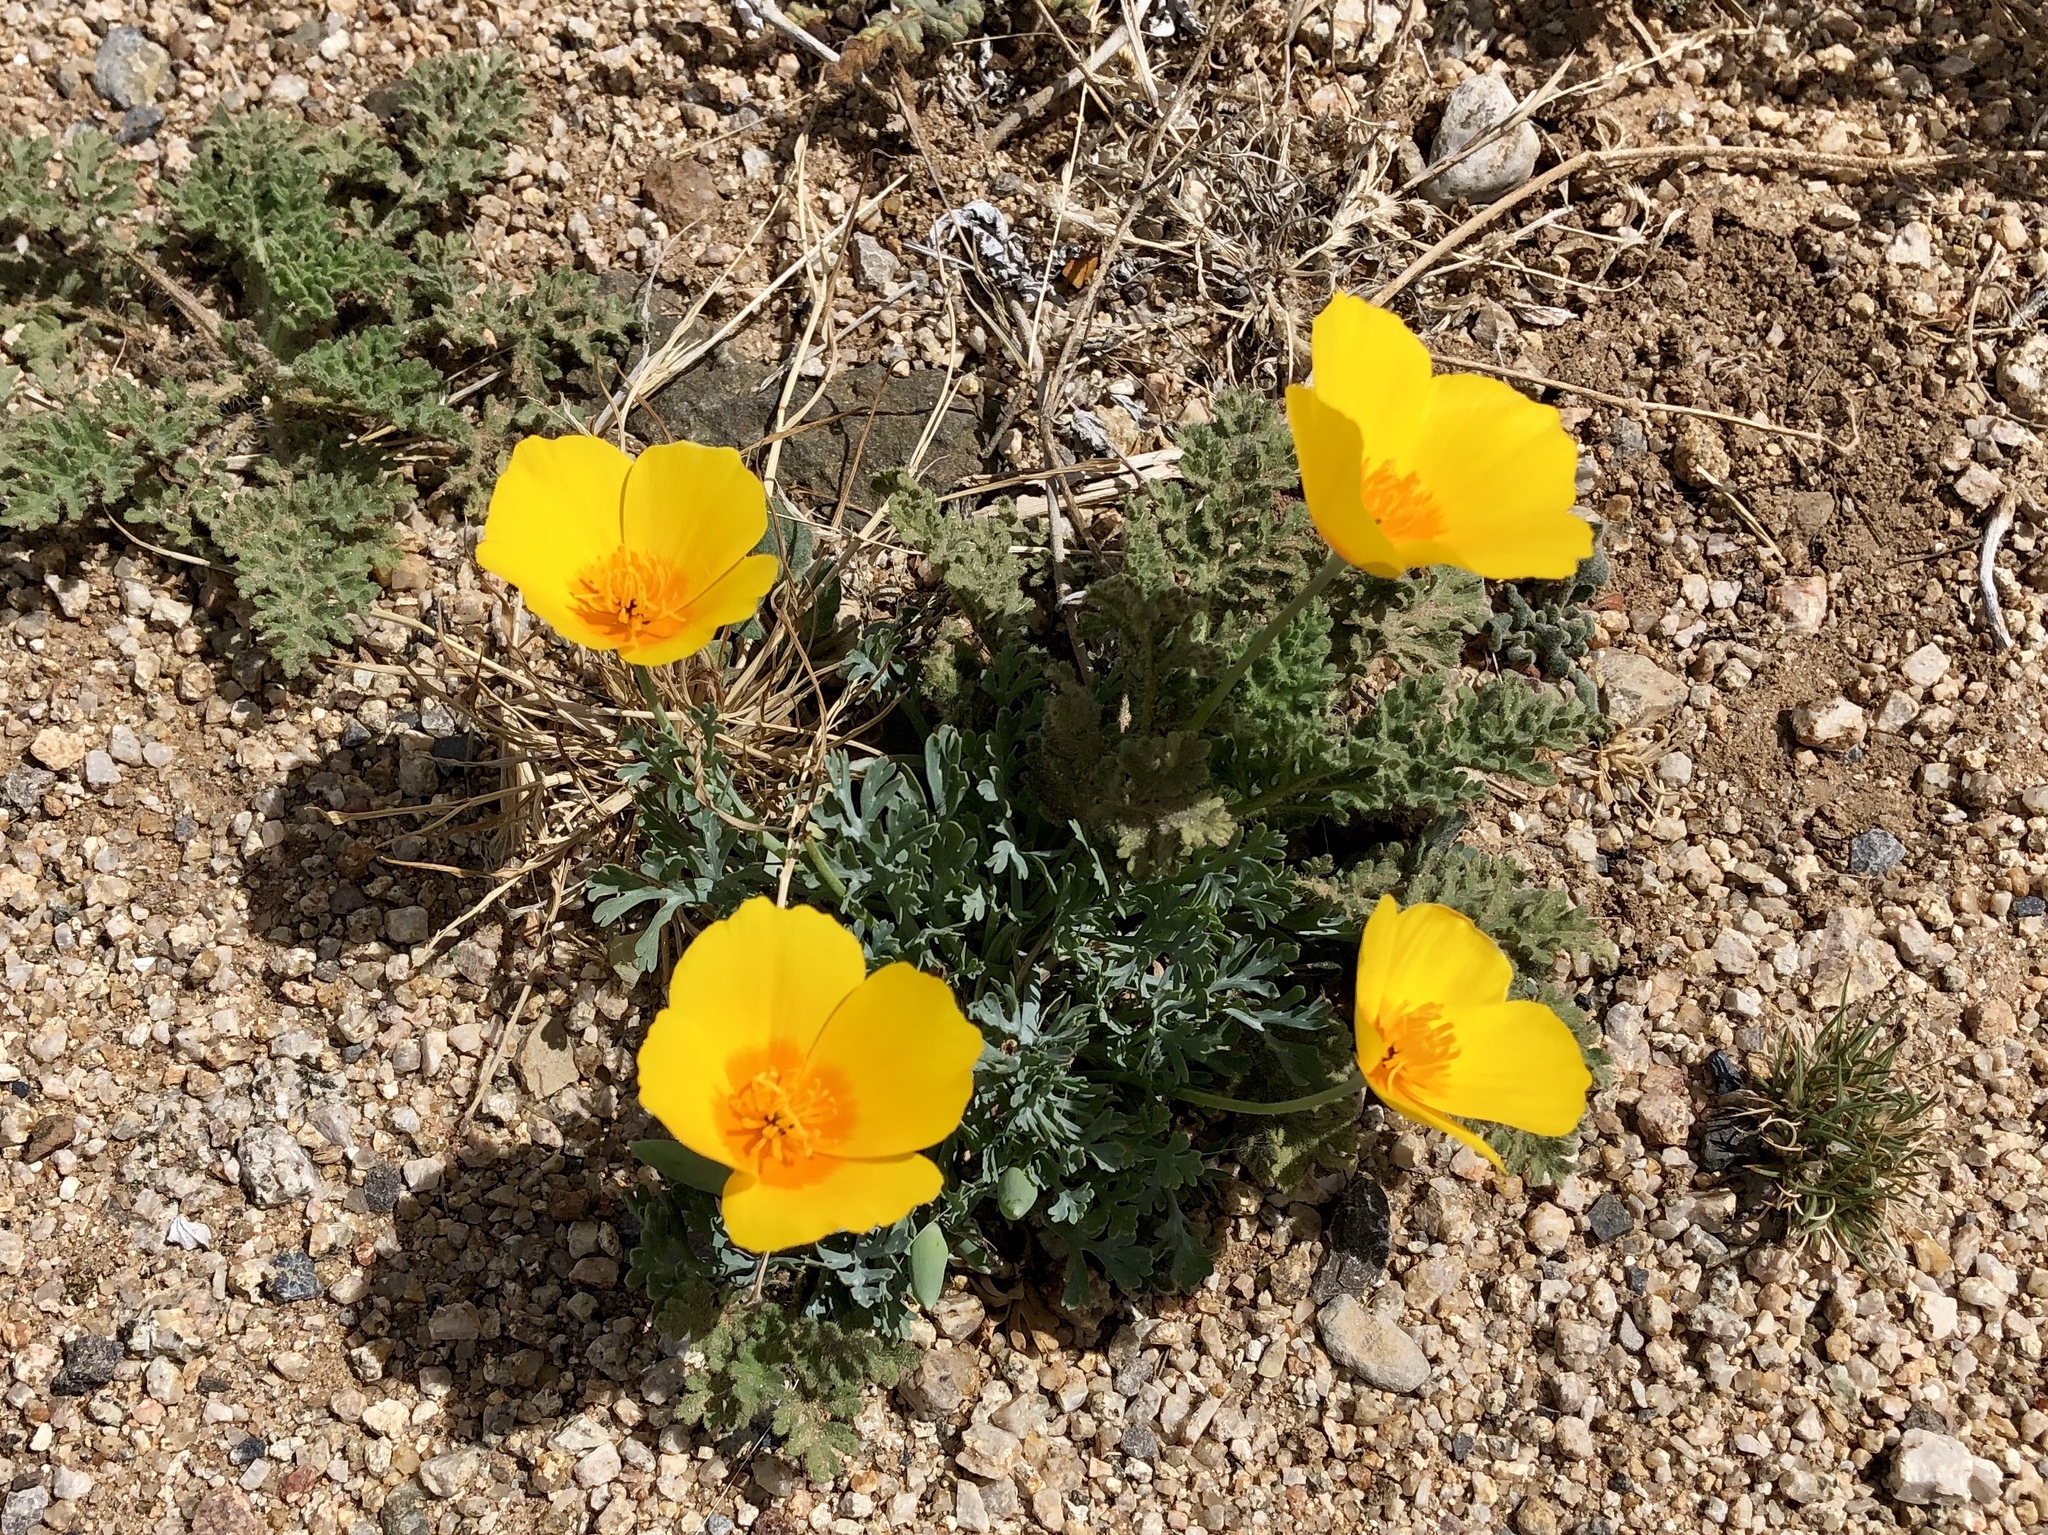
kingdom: Plantae
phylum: Tracheophyta
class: Magnoliopsida
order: Ranunculales
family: Papaveraceae
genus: Eschscholzia
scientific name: Eschscholzia californica
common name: California poppy
